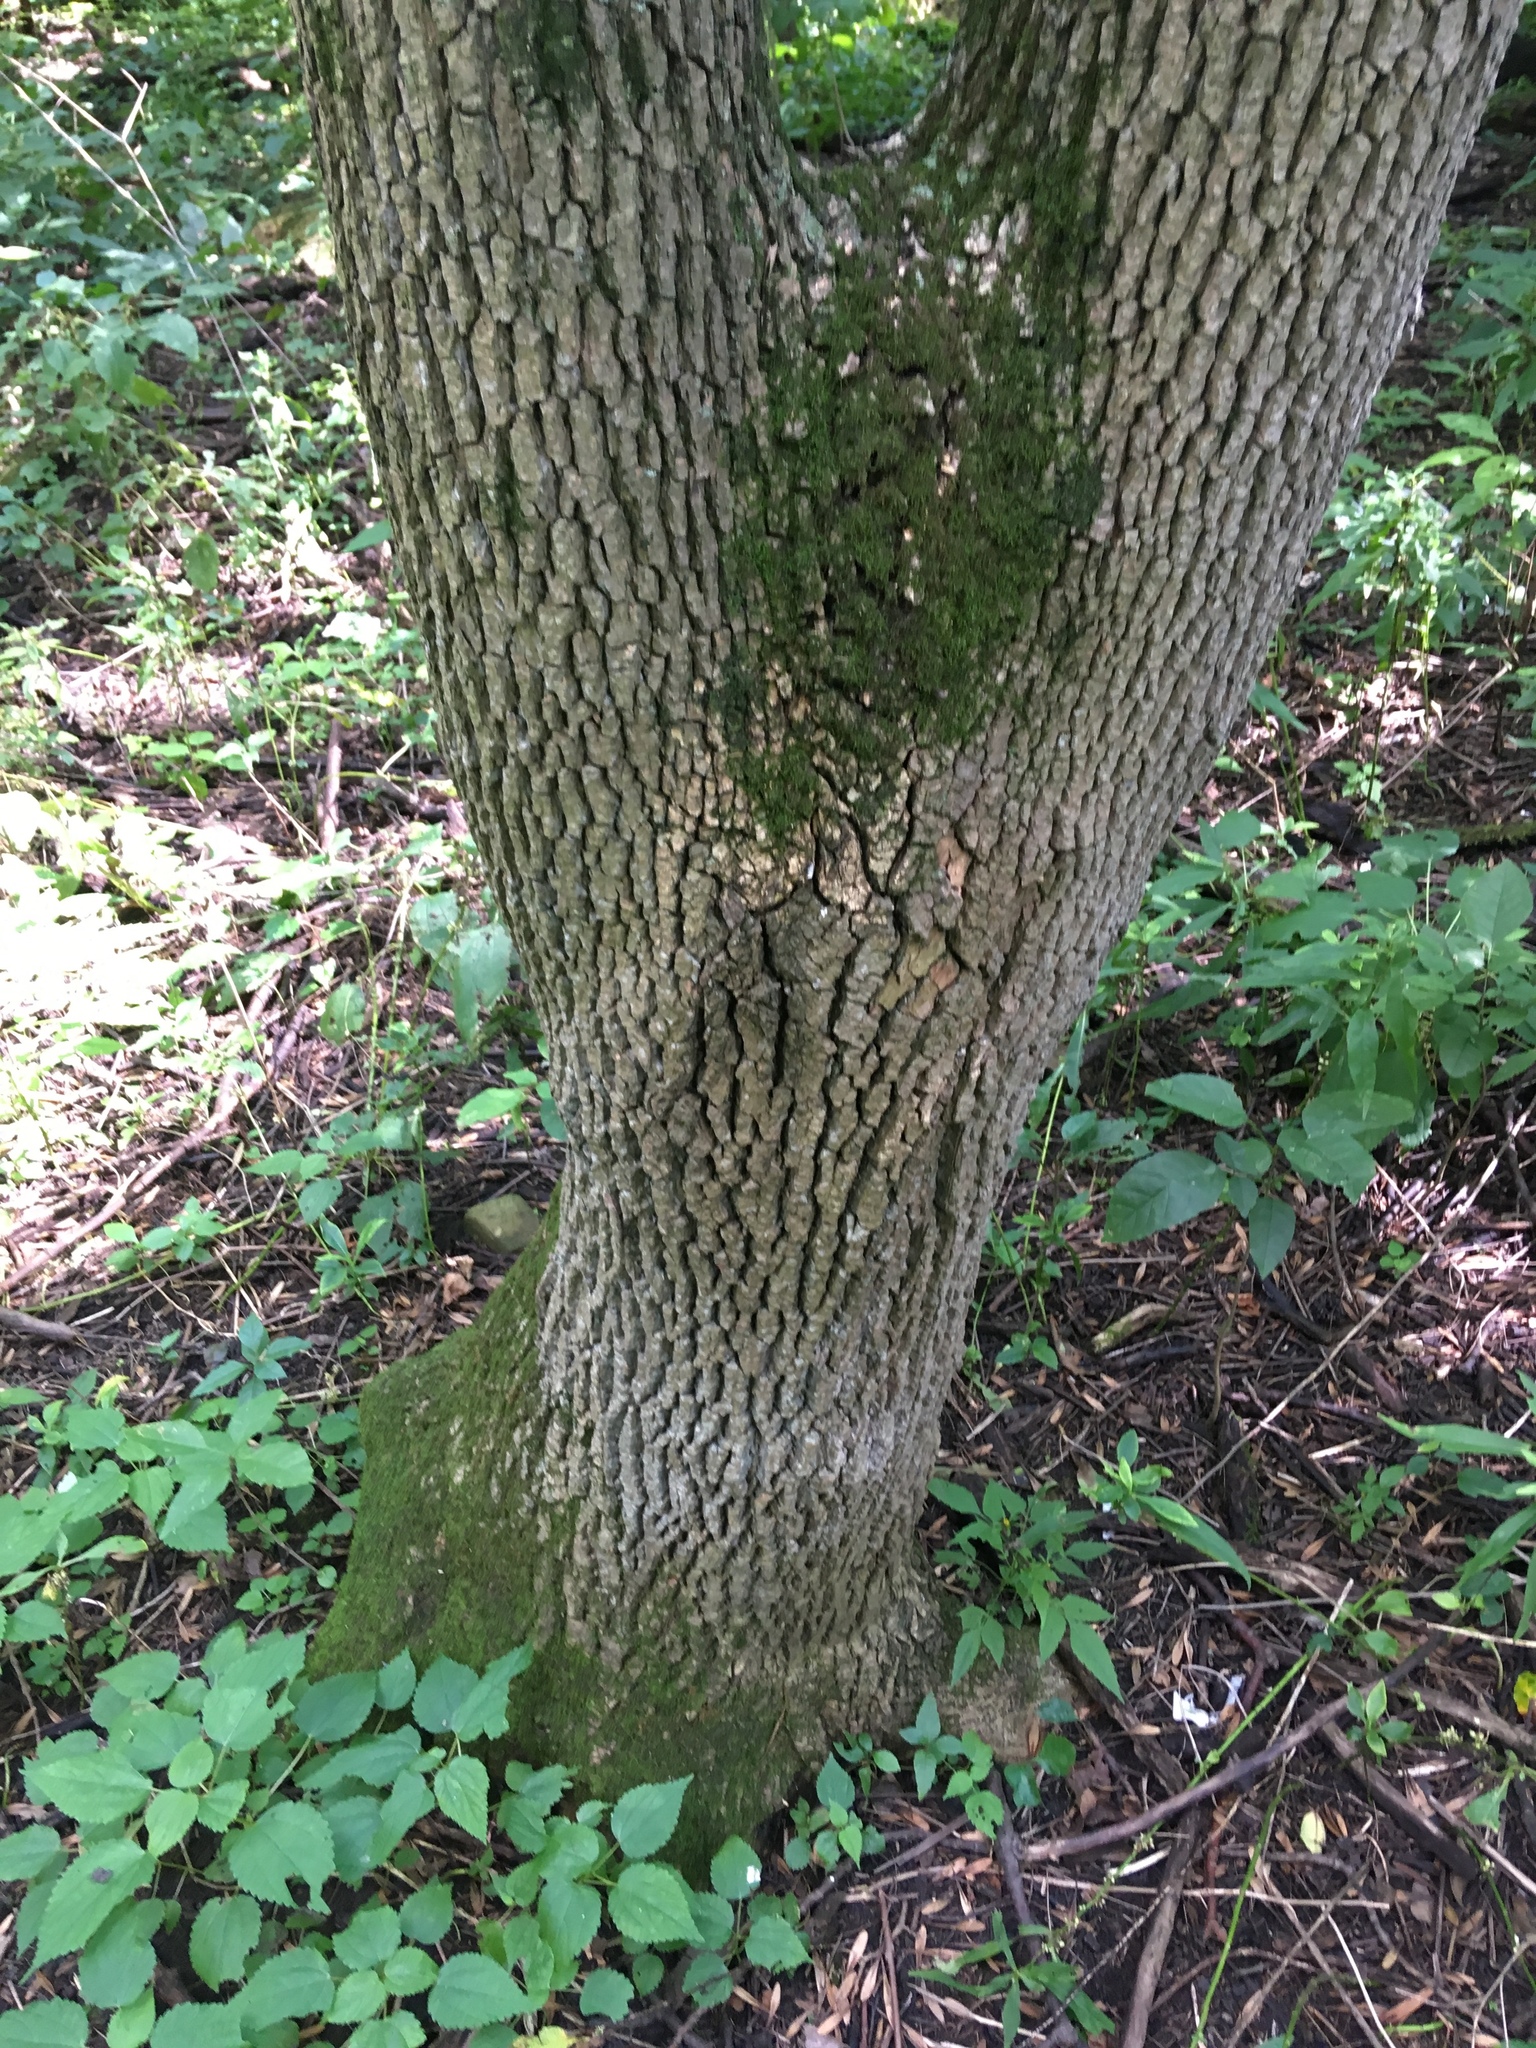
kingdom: Plantae
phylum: Tracheophyta
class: Magnoliopsida
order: Lamiales
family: Oleaceae
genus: Fraxinus
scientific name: Fraxinus pennsylvanica
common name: Green ash
